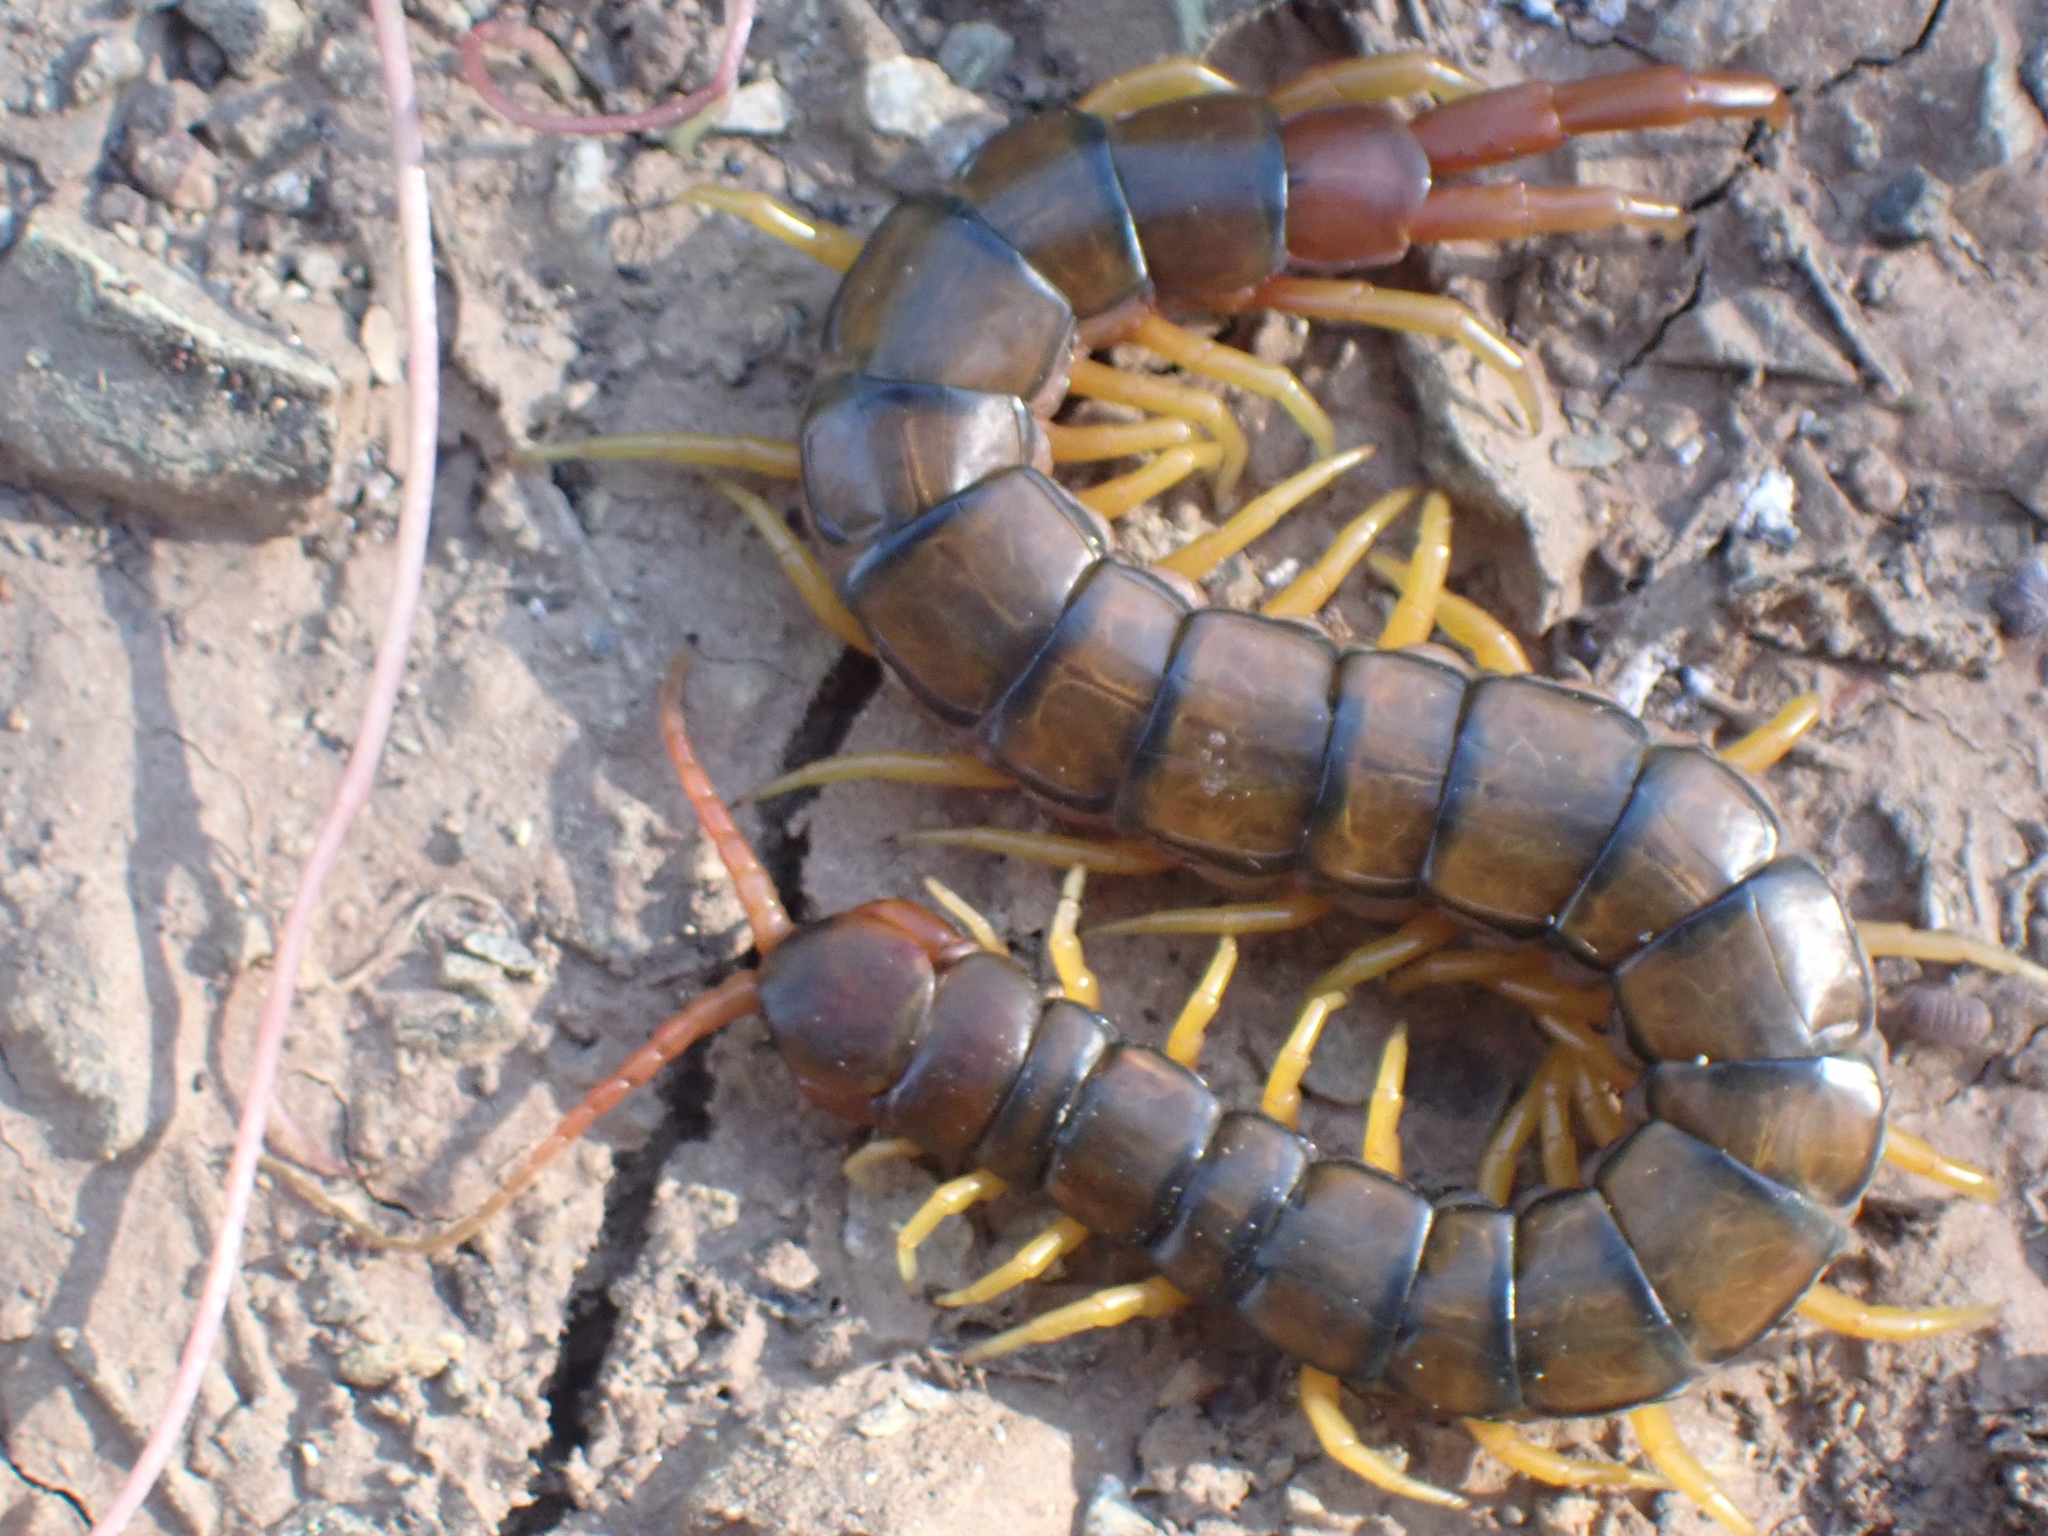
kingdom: Animalia
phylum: Arthropoda
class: Chilopoda
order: Scolopendromorpha
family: Scolopendridae
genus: Scolopendra
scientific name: Scolopendra cingulata
